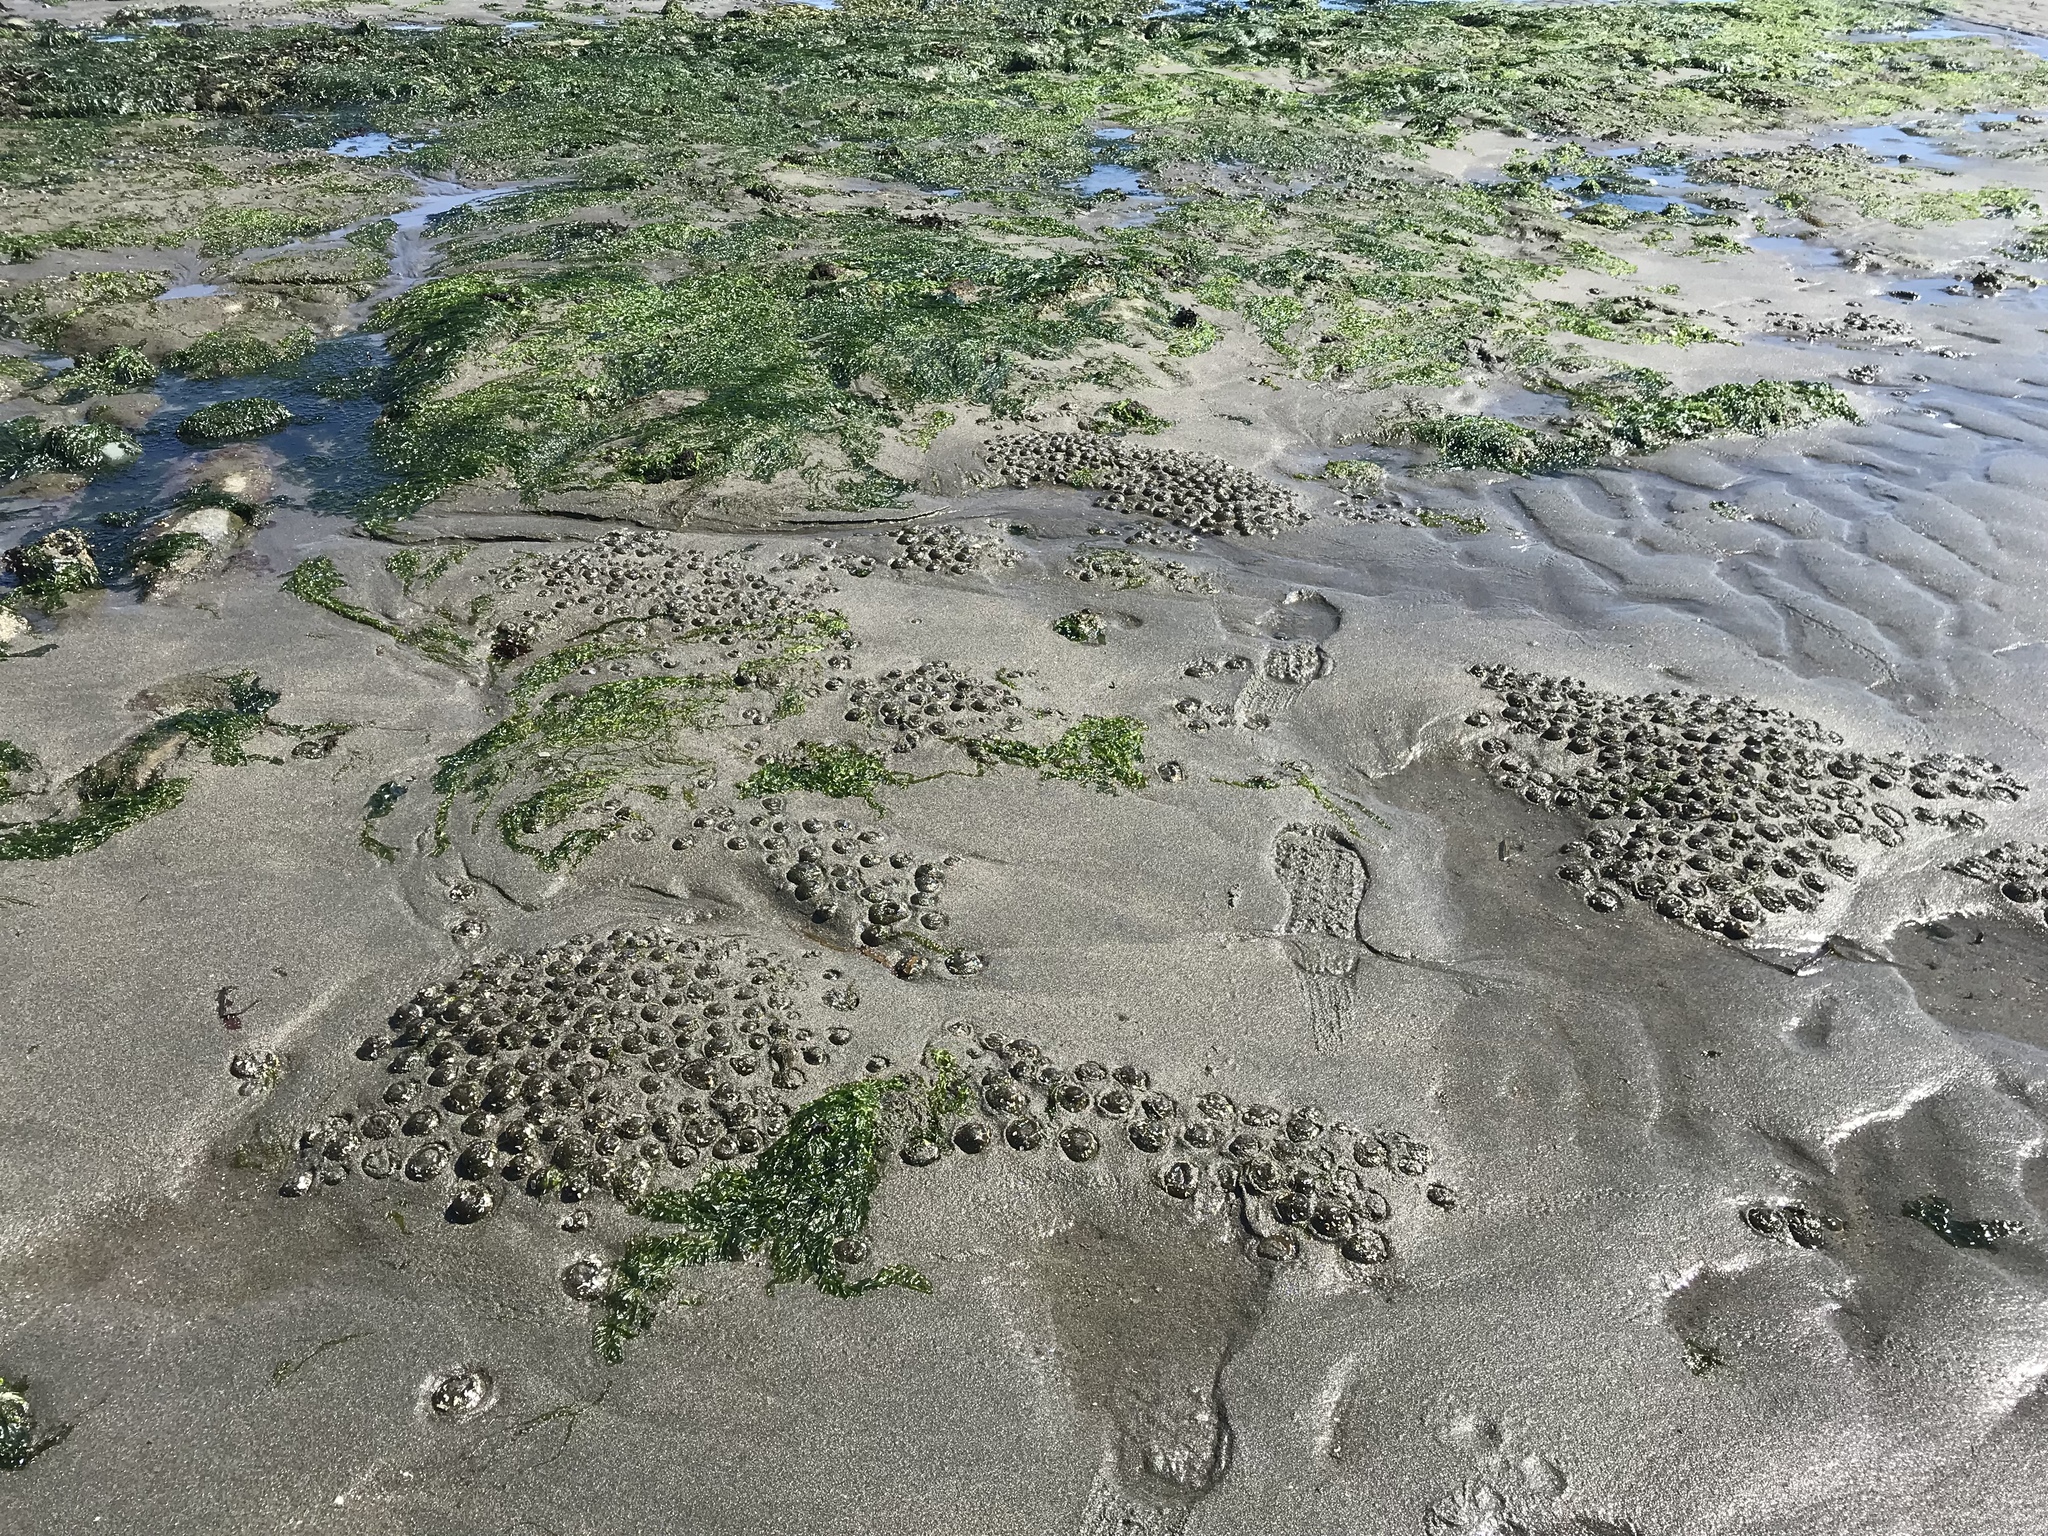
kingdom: Animalia
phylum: Cnidaria
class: Anthozoa
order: Actiniaria
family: Actiniidae
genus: Anthopleura
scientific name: Anthopleura elegantissima
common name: Clonal anemone
